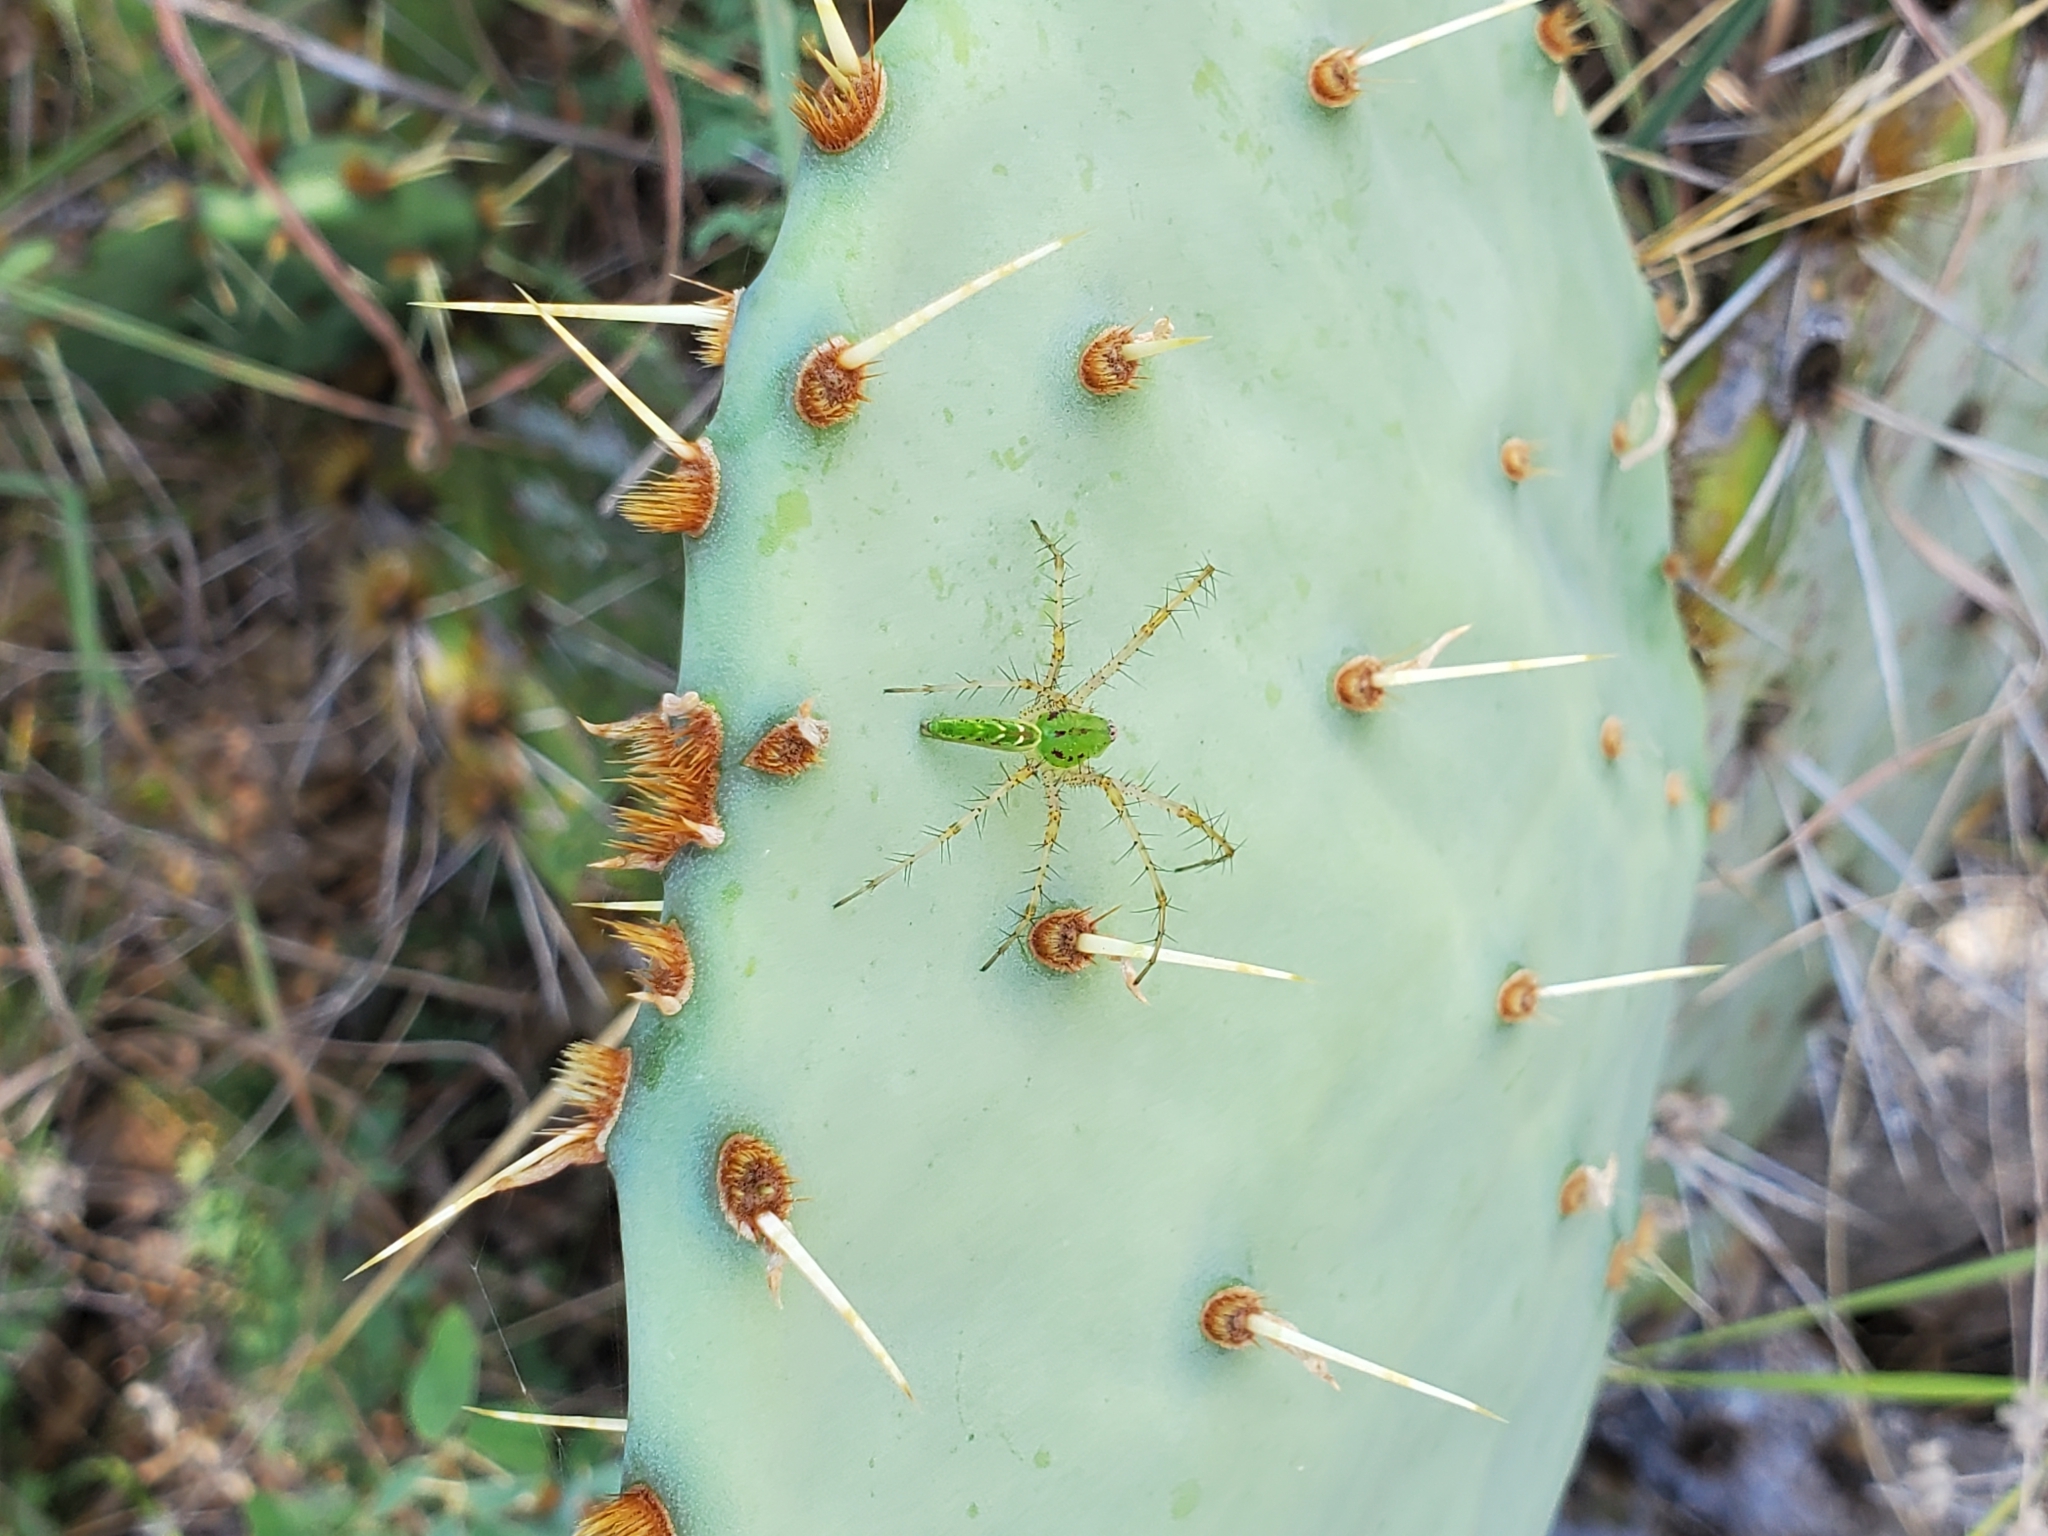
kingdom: Animalia
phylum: Arthropoda
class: Arachnida
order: Araneae
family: Oxyopidae
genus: Peucetia
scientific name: Peucetia viridans
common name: Lynx spiders
